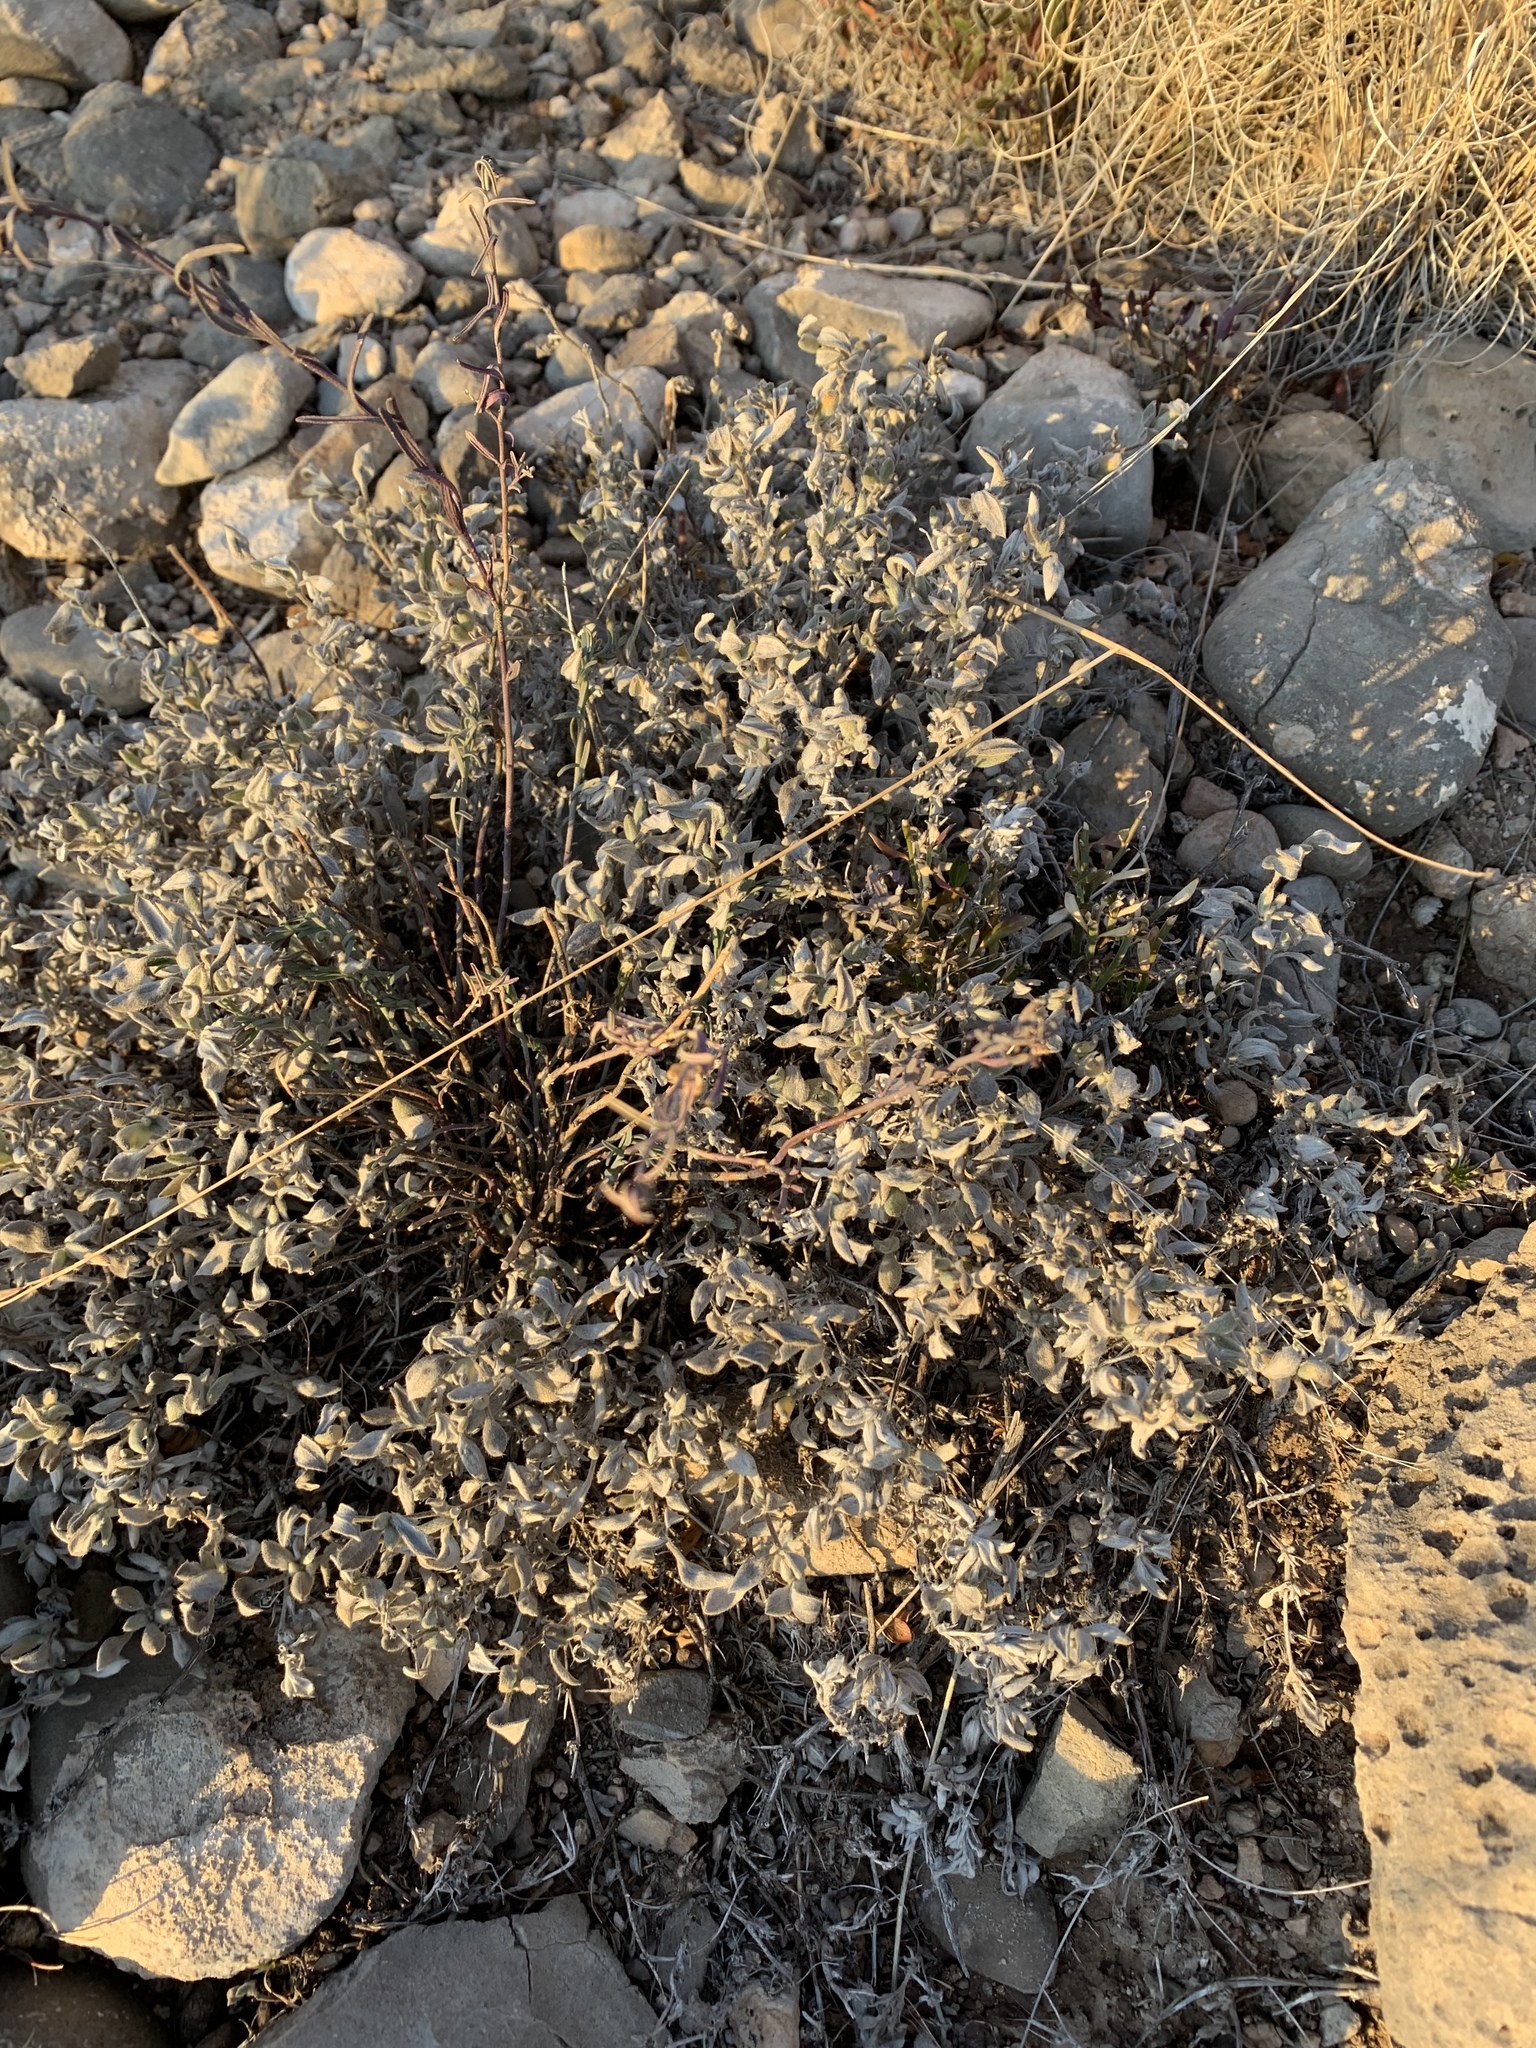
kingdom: Plantae
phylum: Tracheophyta
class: Magnoliopsida
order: Boraginales
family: Ehretiaceae
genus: Tiquilia
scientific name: Tiquilia canescens
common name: Hairy tiquilia
